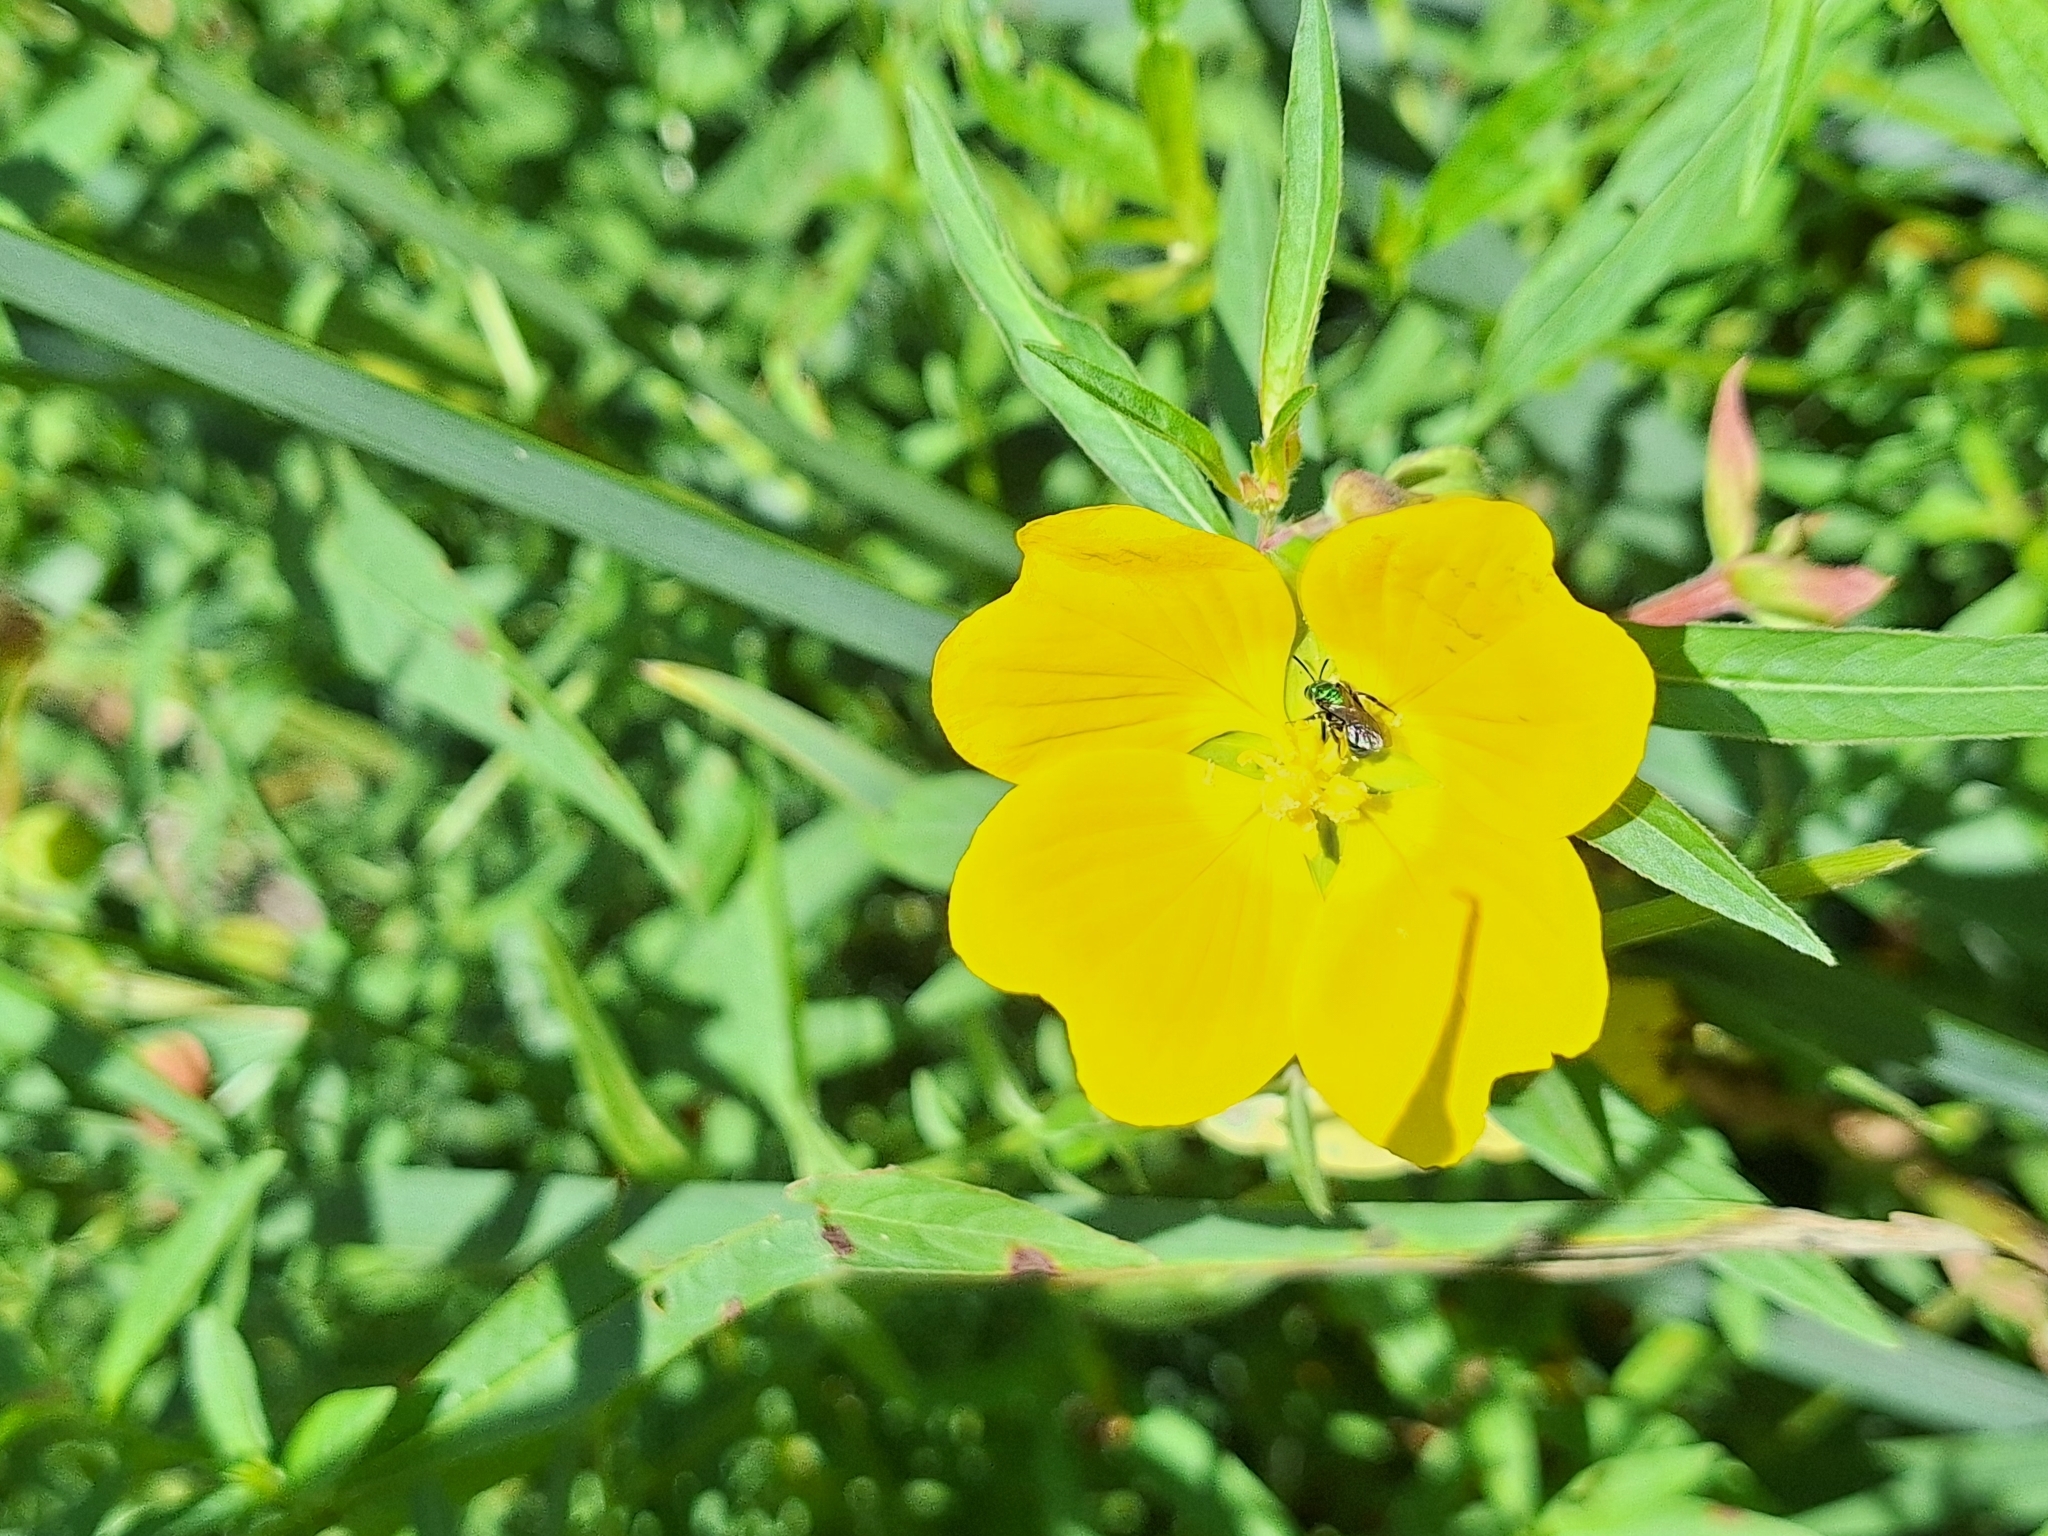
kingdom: Plantae
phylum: Tracheophyta
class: Magnoliopsida
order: Myrtales
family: Onagraceae
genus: Ludwigia
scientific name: Ludwigia bonariensis
